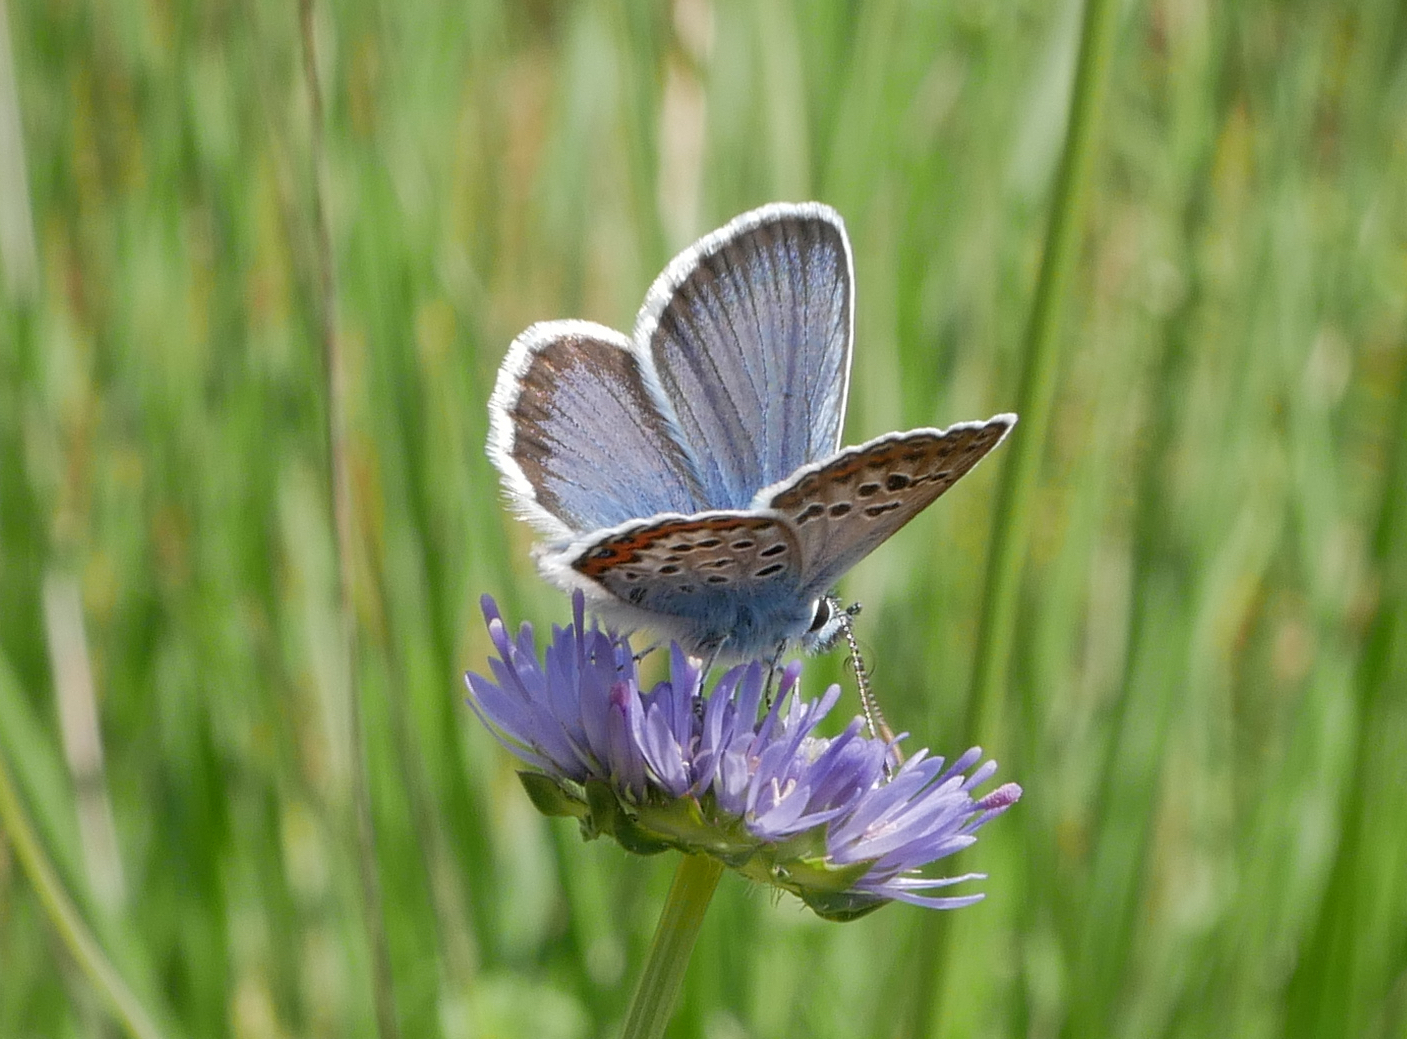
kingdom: Animalia
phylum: Arthropoda
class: Insecta
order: Lepidoptera
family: Lycaenidae
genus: Plebejus
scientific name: Plebejus argus
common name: Silver-studded blue
